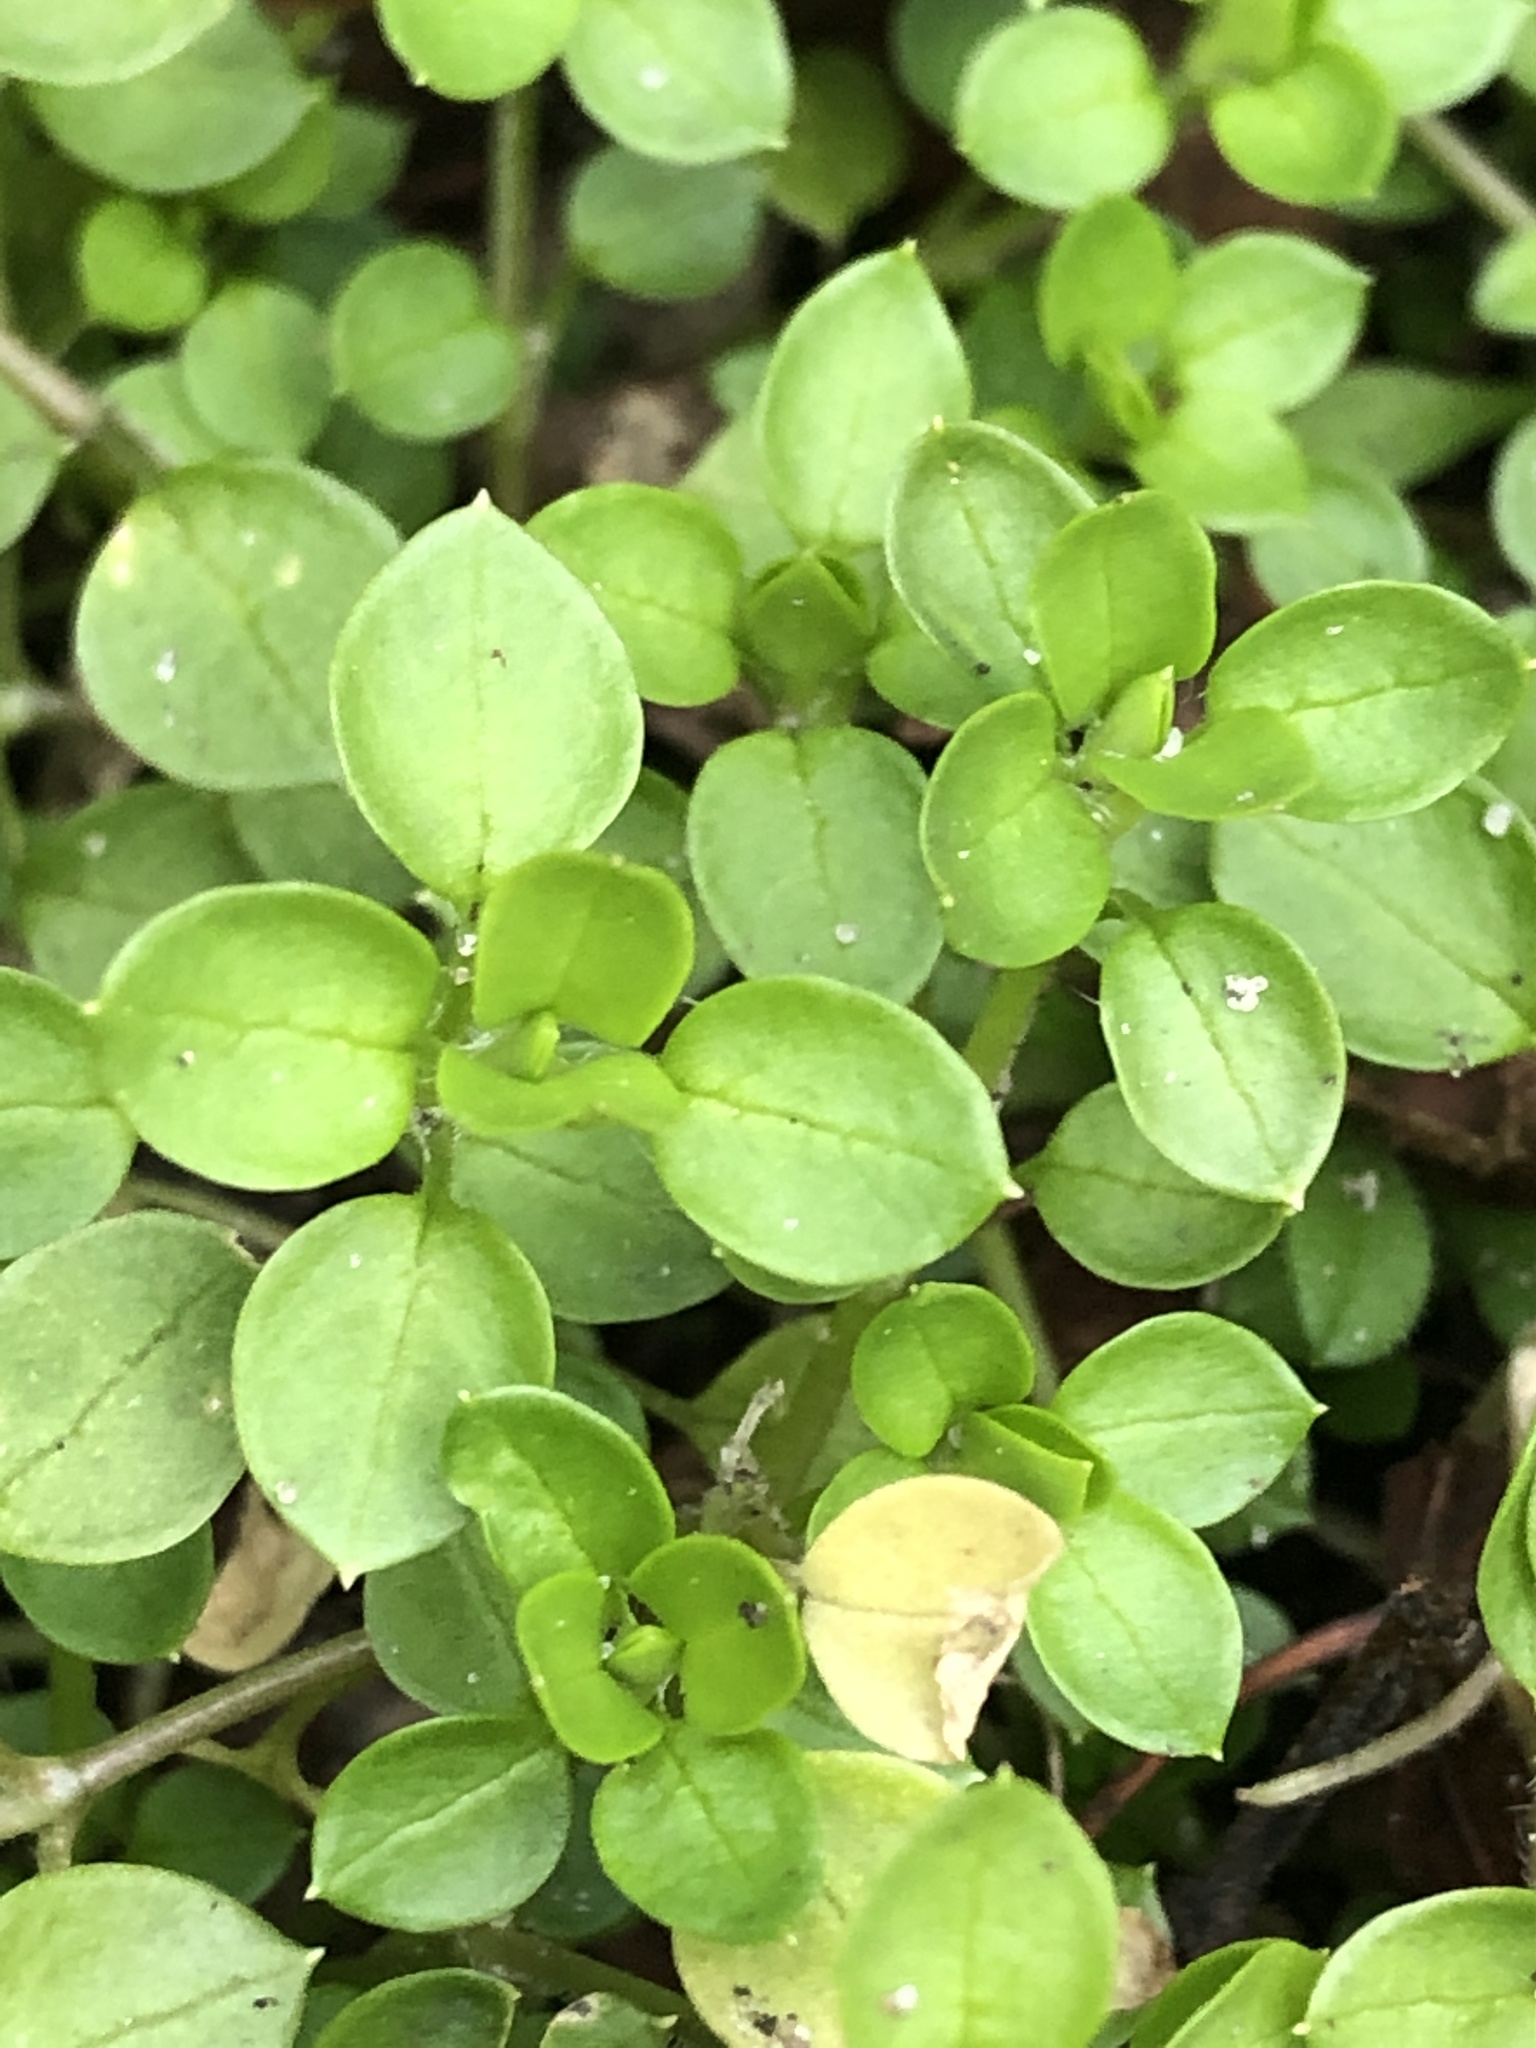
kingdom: Plantae
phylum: Tracheophyta
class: Magnoliopsida
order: Caryophyllales
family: Caryophyllaceae
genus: Stellaria
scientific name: Stellaria media
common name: Common chickweed
